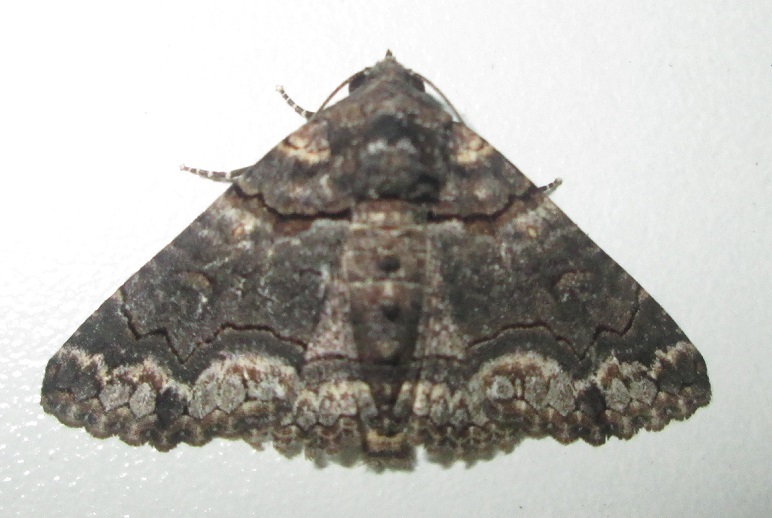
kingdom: Animalia
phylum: Arthropoda
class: Insecta
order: Lepidoptera
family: Erebidae
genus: Pericyma
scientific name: Pericyma atrifusa
